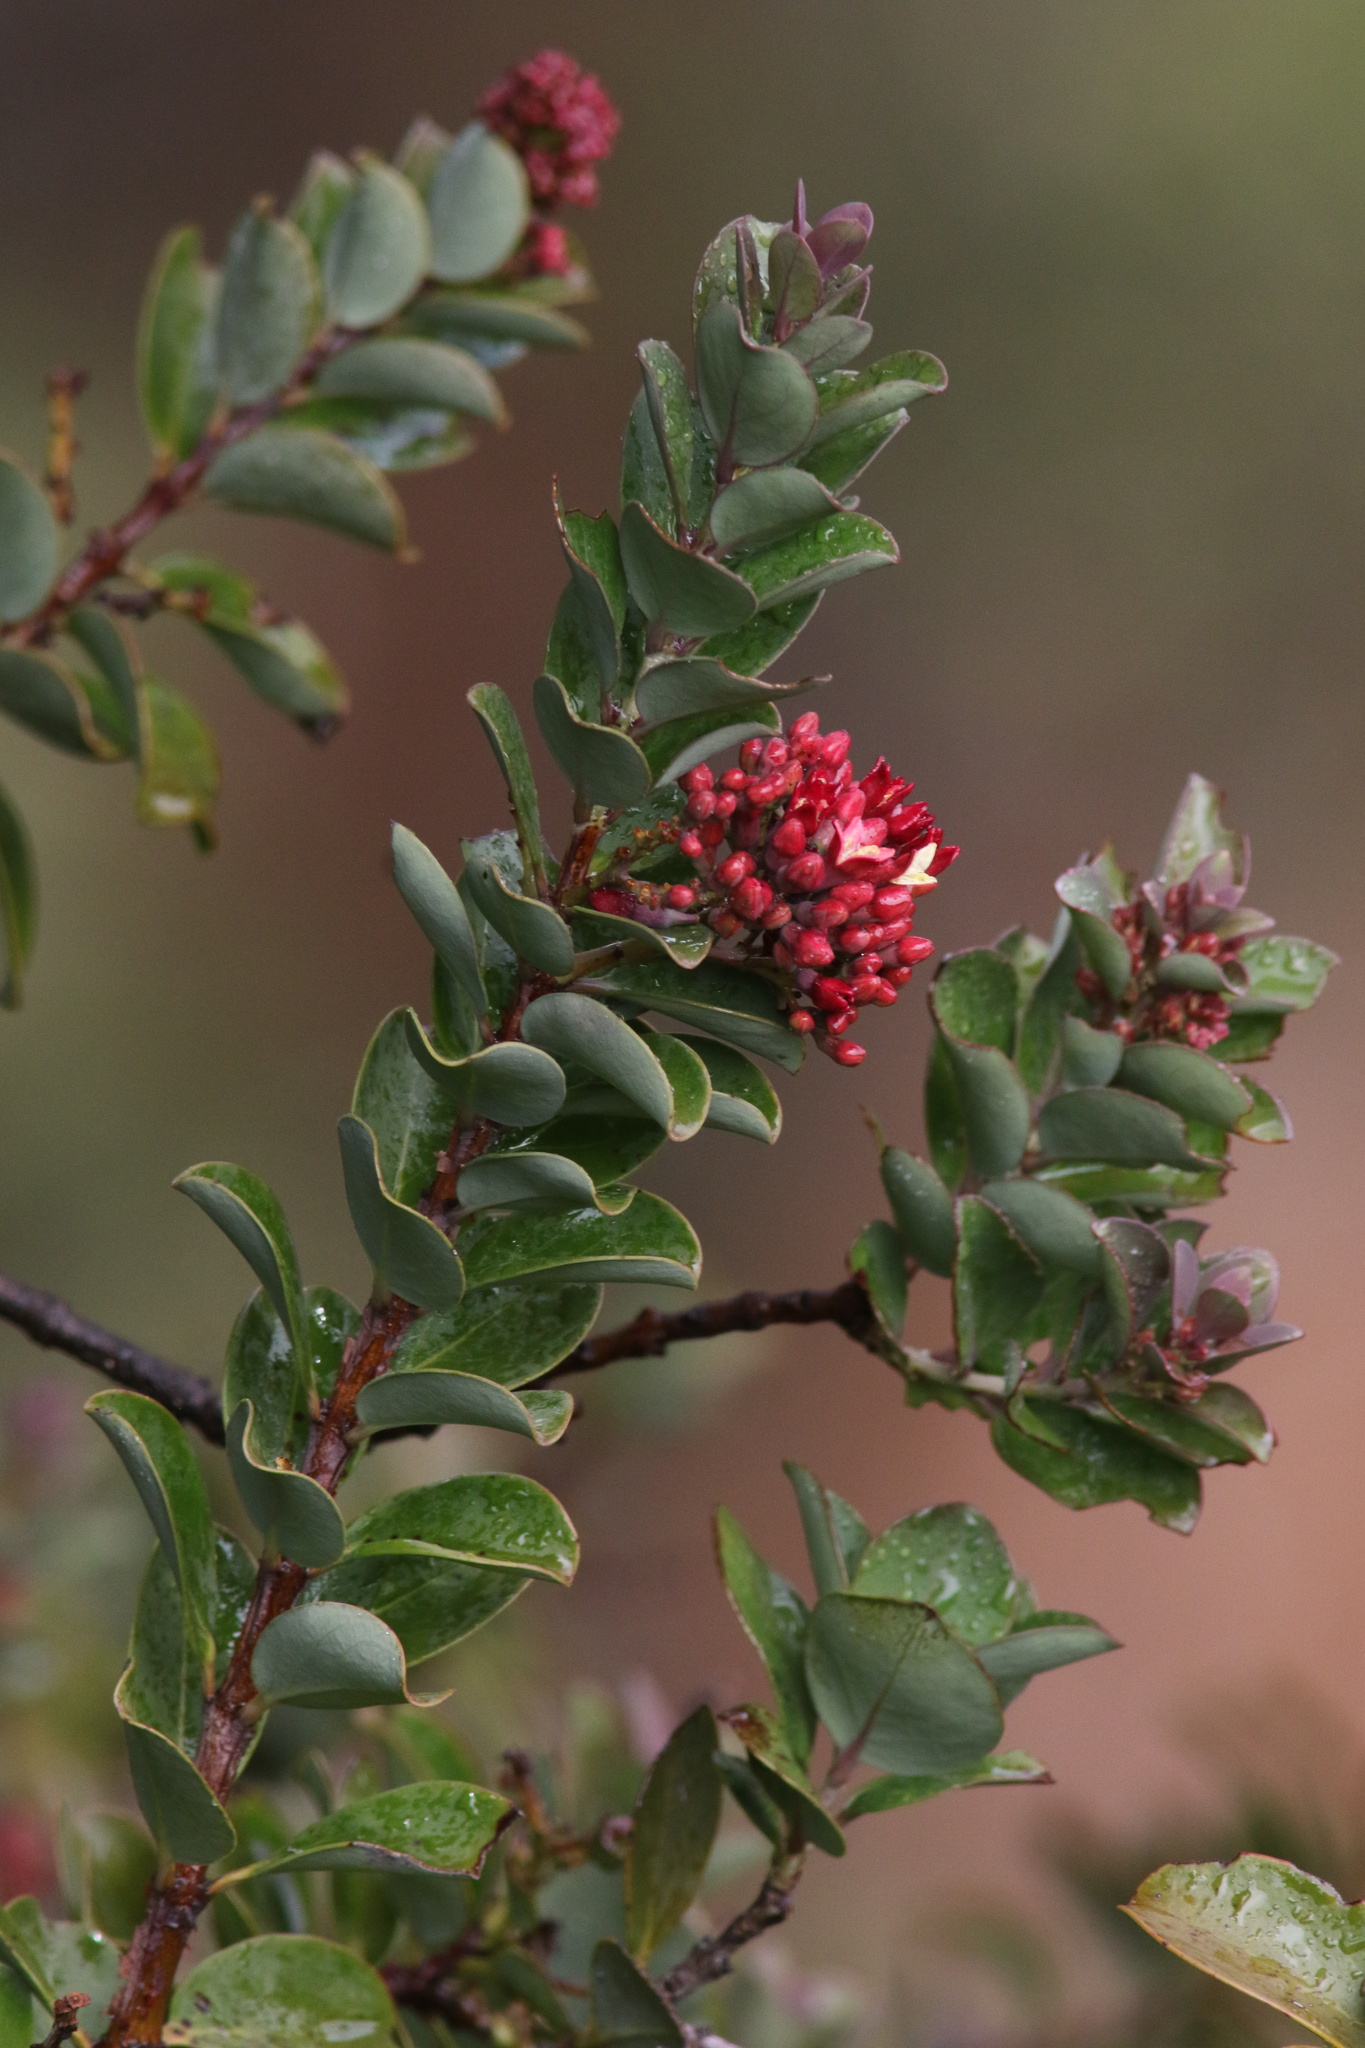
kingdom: Plantae
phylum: Tracheophyta
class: Magnoliopsida
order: Santalales
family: Santalaceae
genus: Santalum
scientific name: Santalum haleakalae
